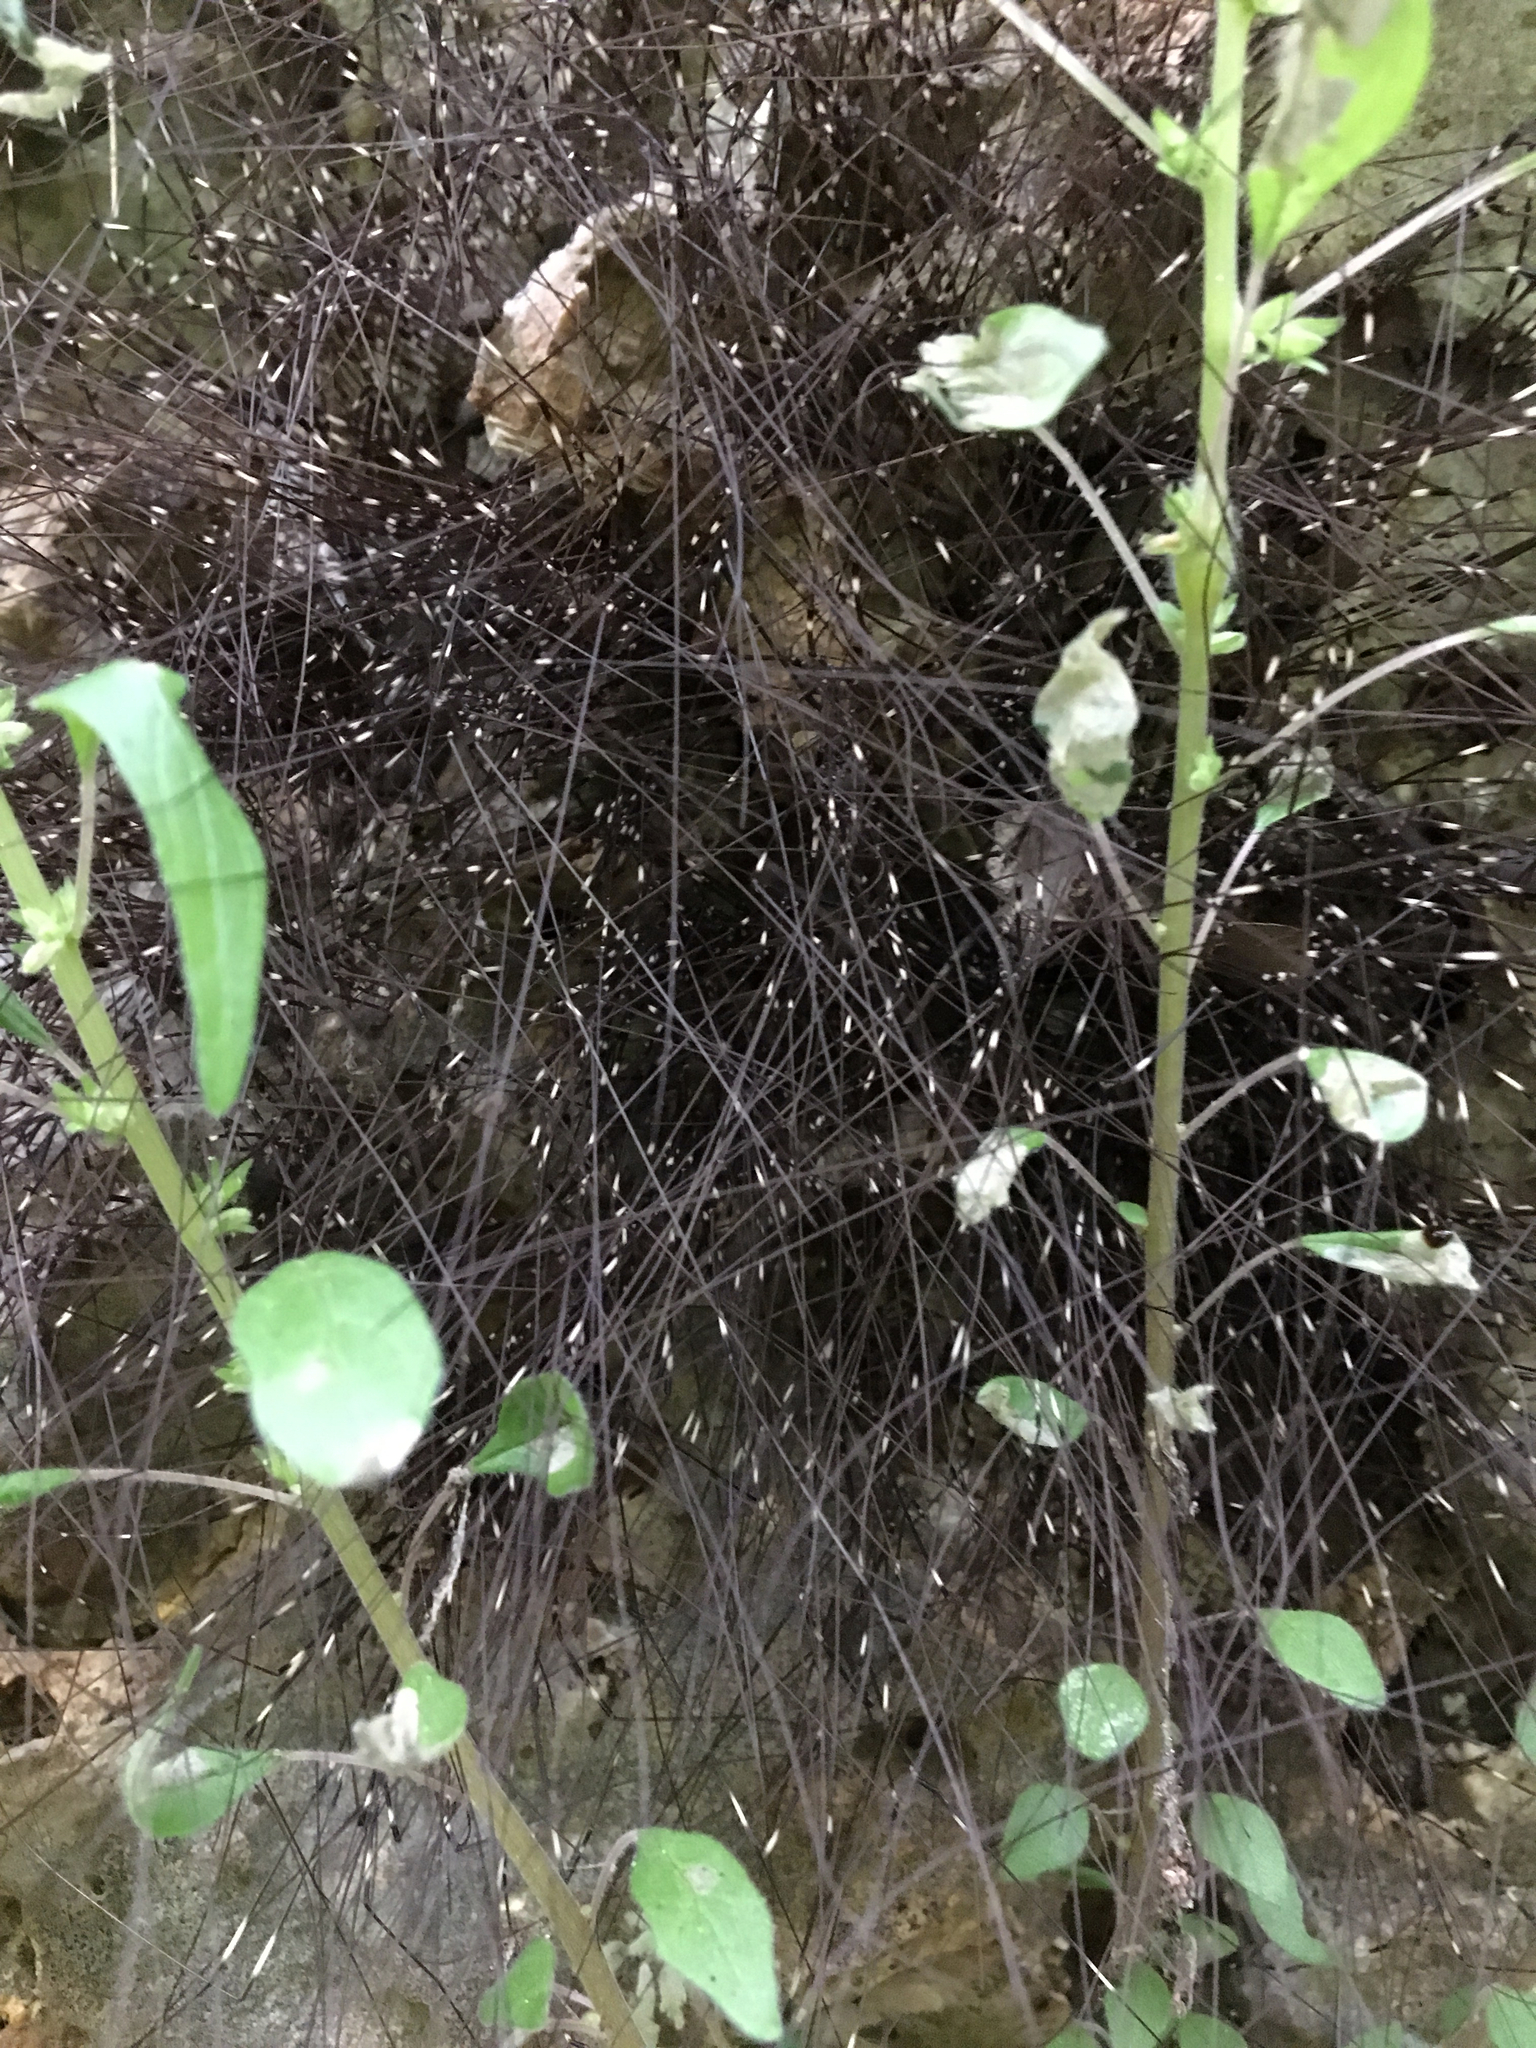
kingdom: Animalia
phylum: Arthropoda
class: Arachnida
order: Opiliones
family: Sclerosomatidae
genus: Leiobunum
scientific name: Leiobunum townsendi
